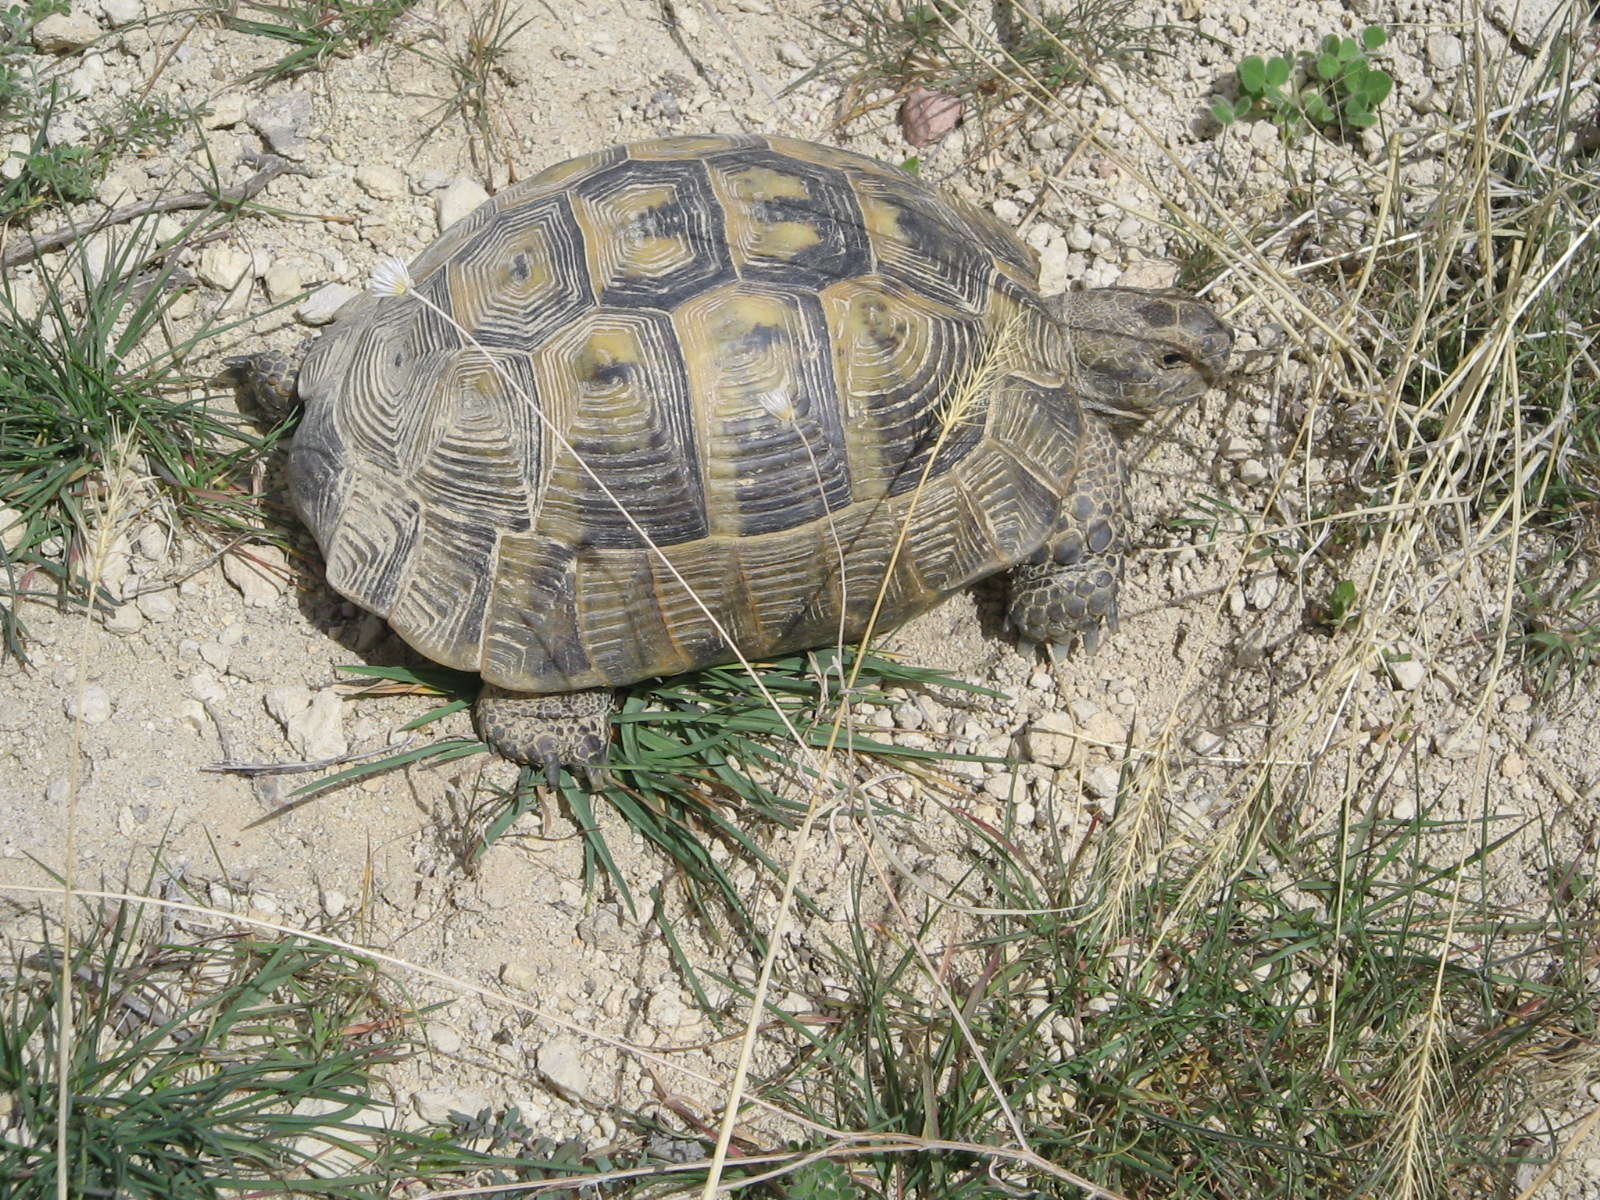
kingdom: Animalia
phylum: Chordata
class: Testudines
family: Testudinidae
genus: Testudo
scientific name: Testudo graeca
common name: Common tortoise
